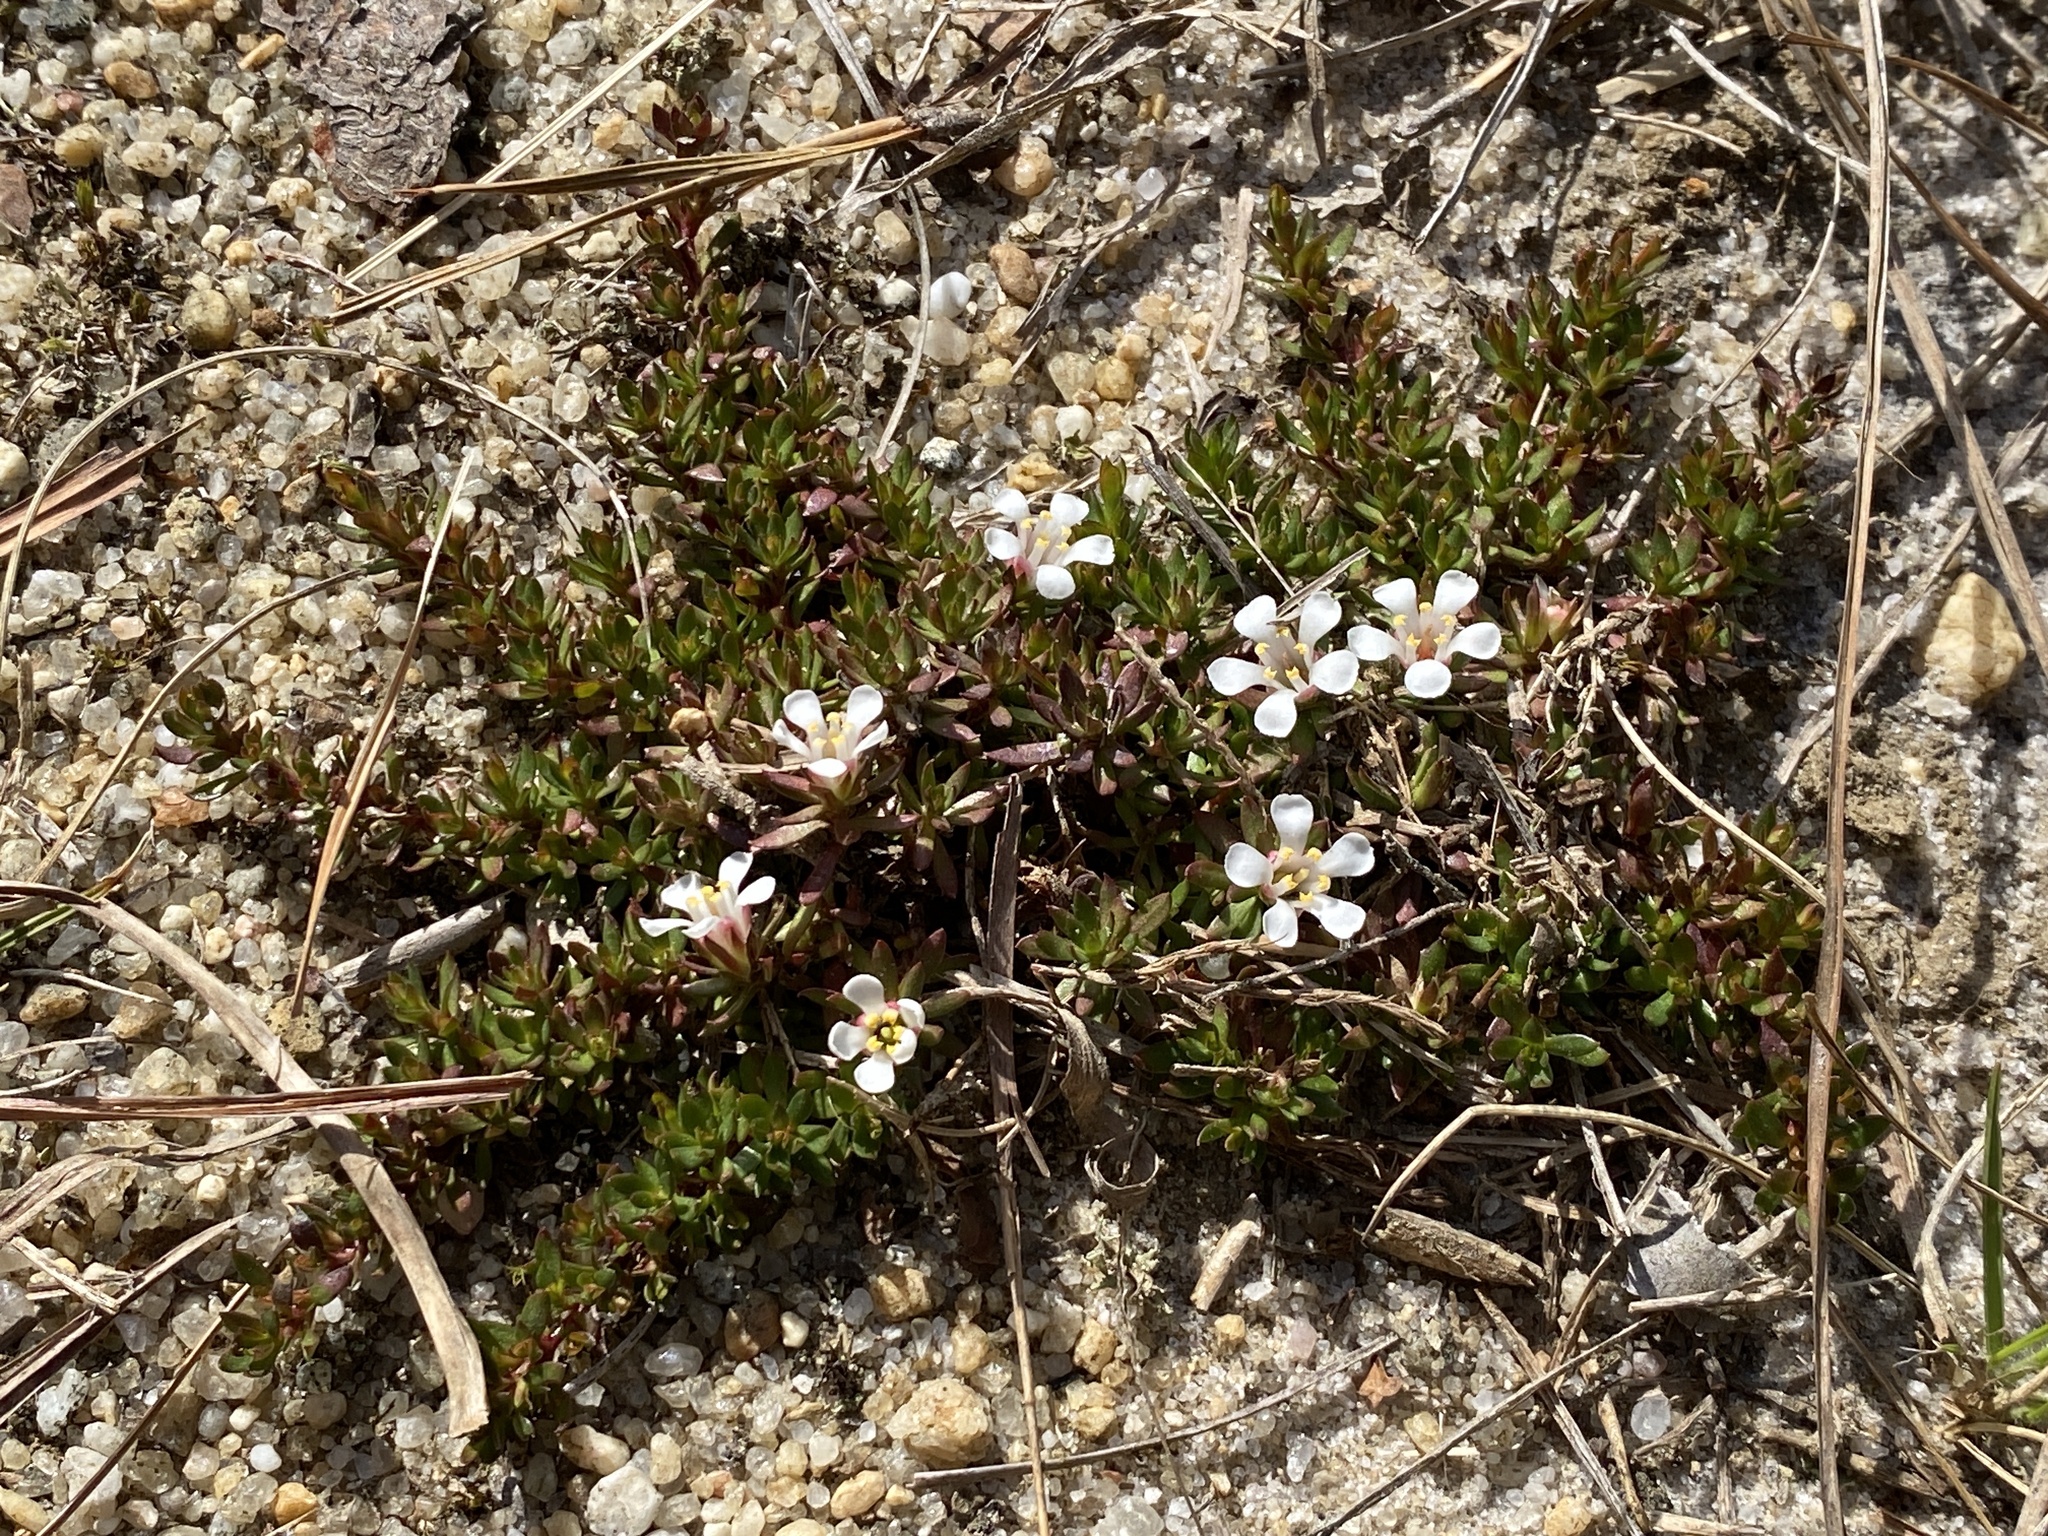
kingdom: Plantae
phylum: Tracheophyta
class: Magnoliopsida
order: Ericales
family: Diapensiaceae
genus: Pyxidanthera
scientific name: Pyxidanthera barbulata
